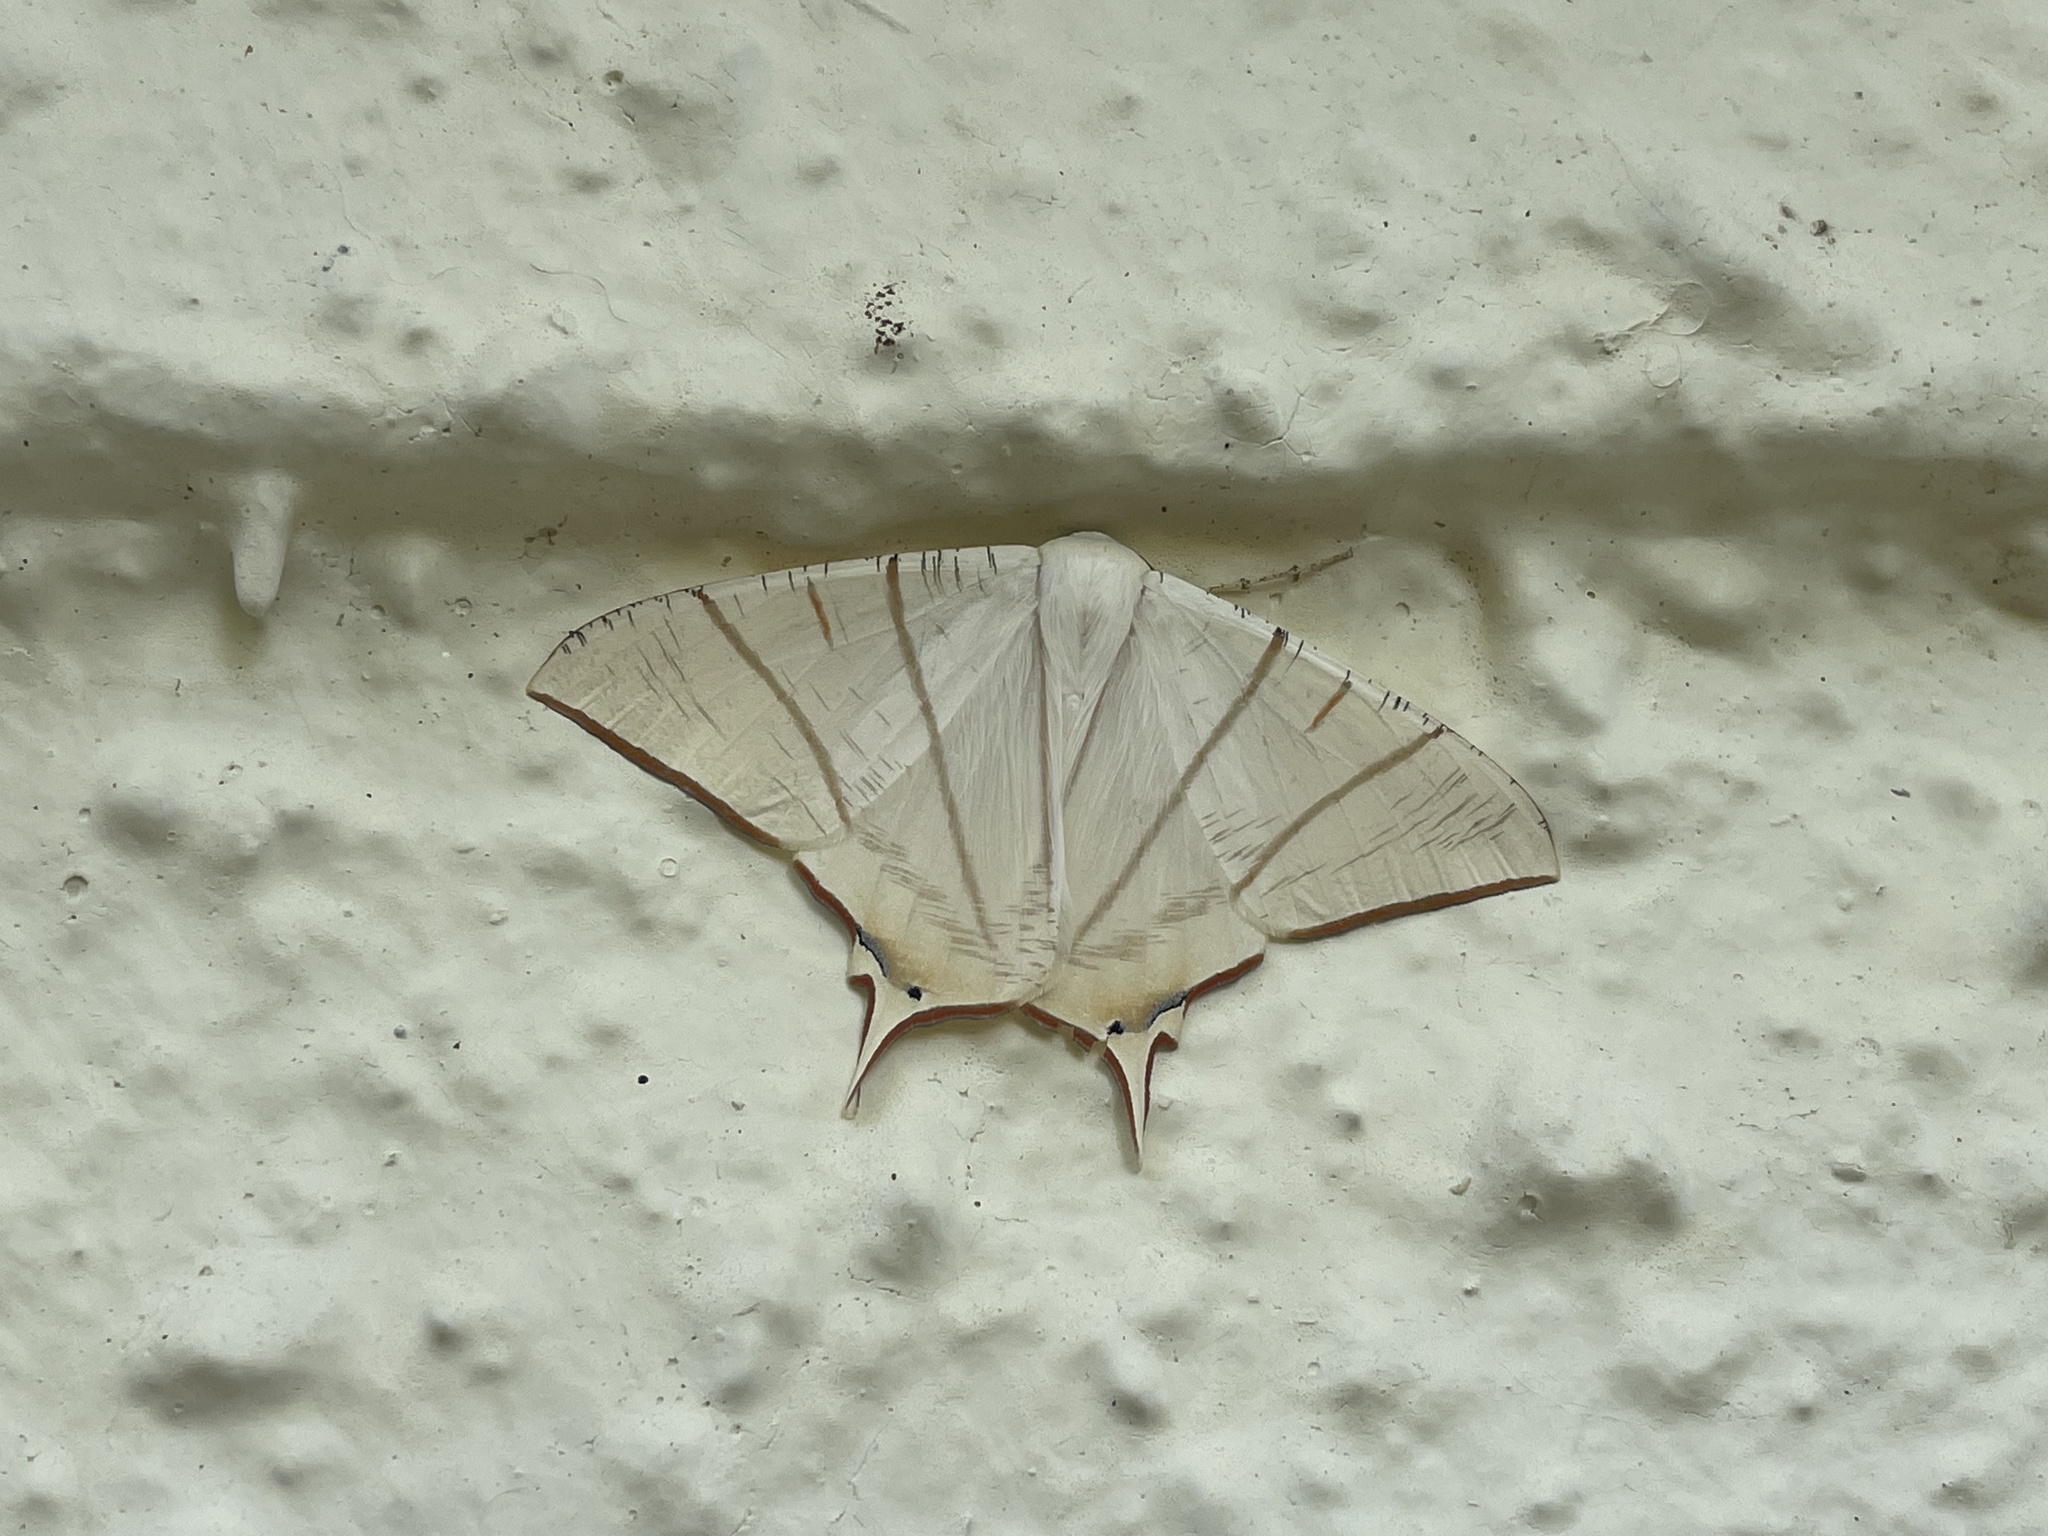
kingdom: Animalia
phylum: Arthropoda
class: Insecta
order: Lepidoptera
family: Geometridae
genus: Ourapteryx
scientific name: Ourapteryx clara
